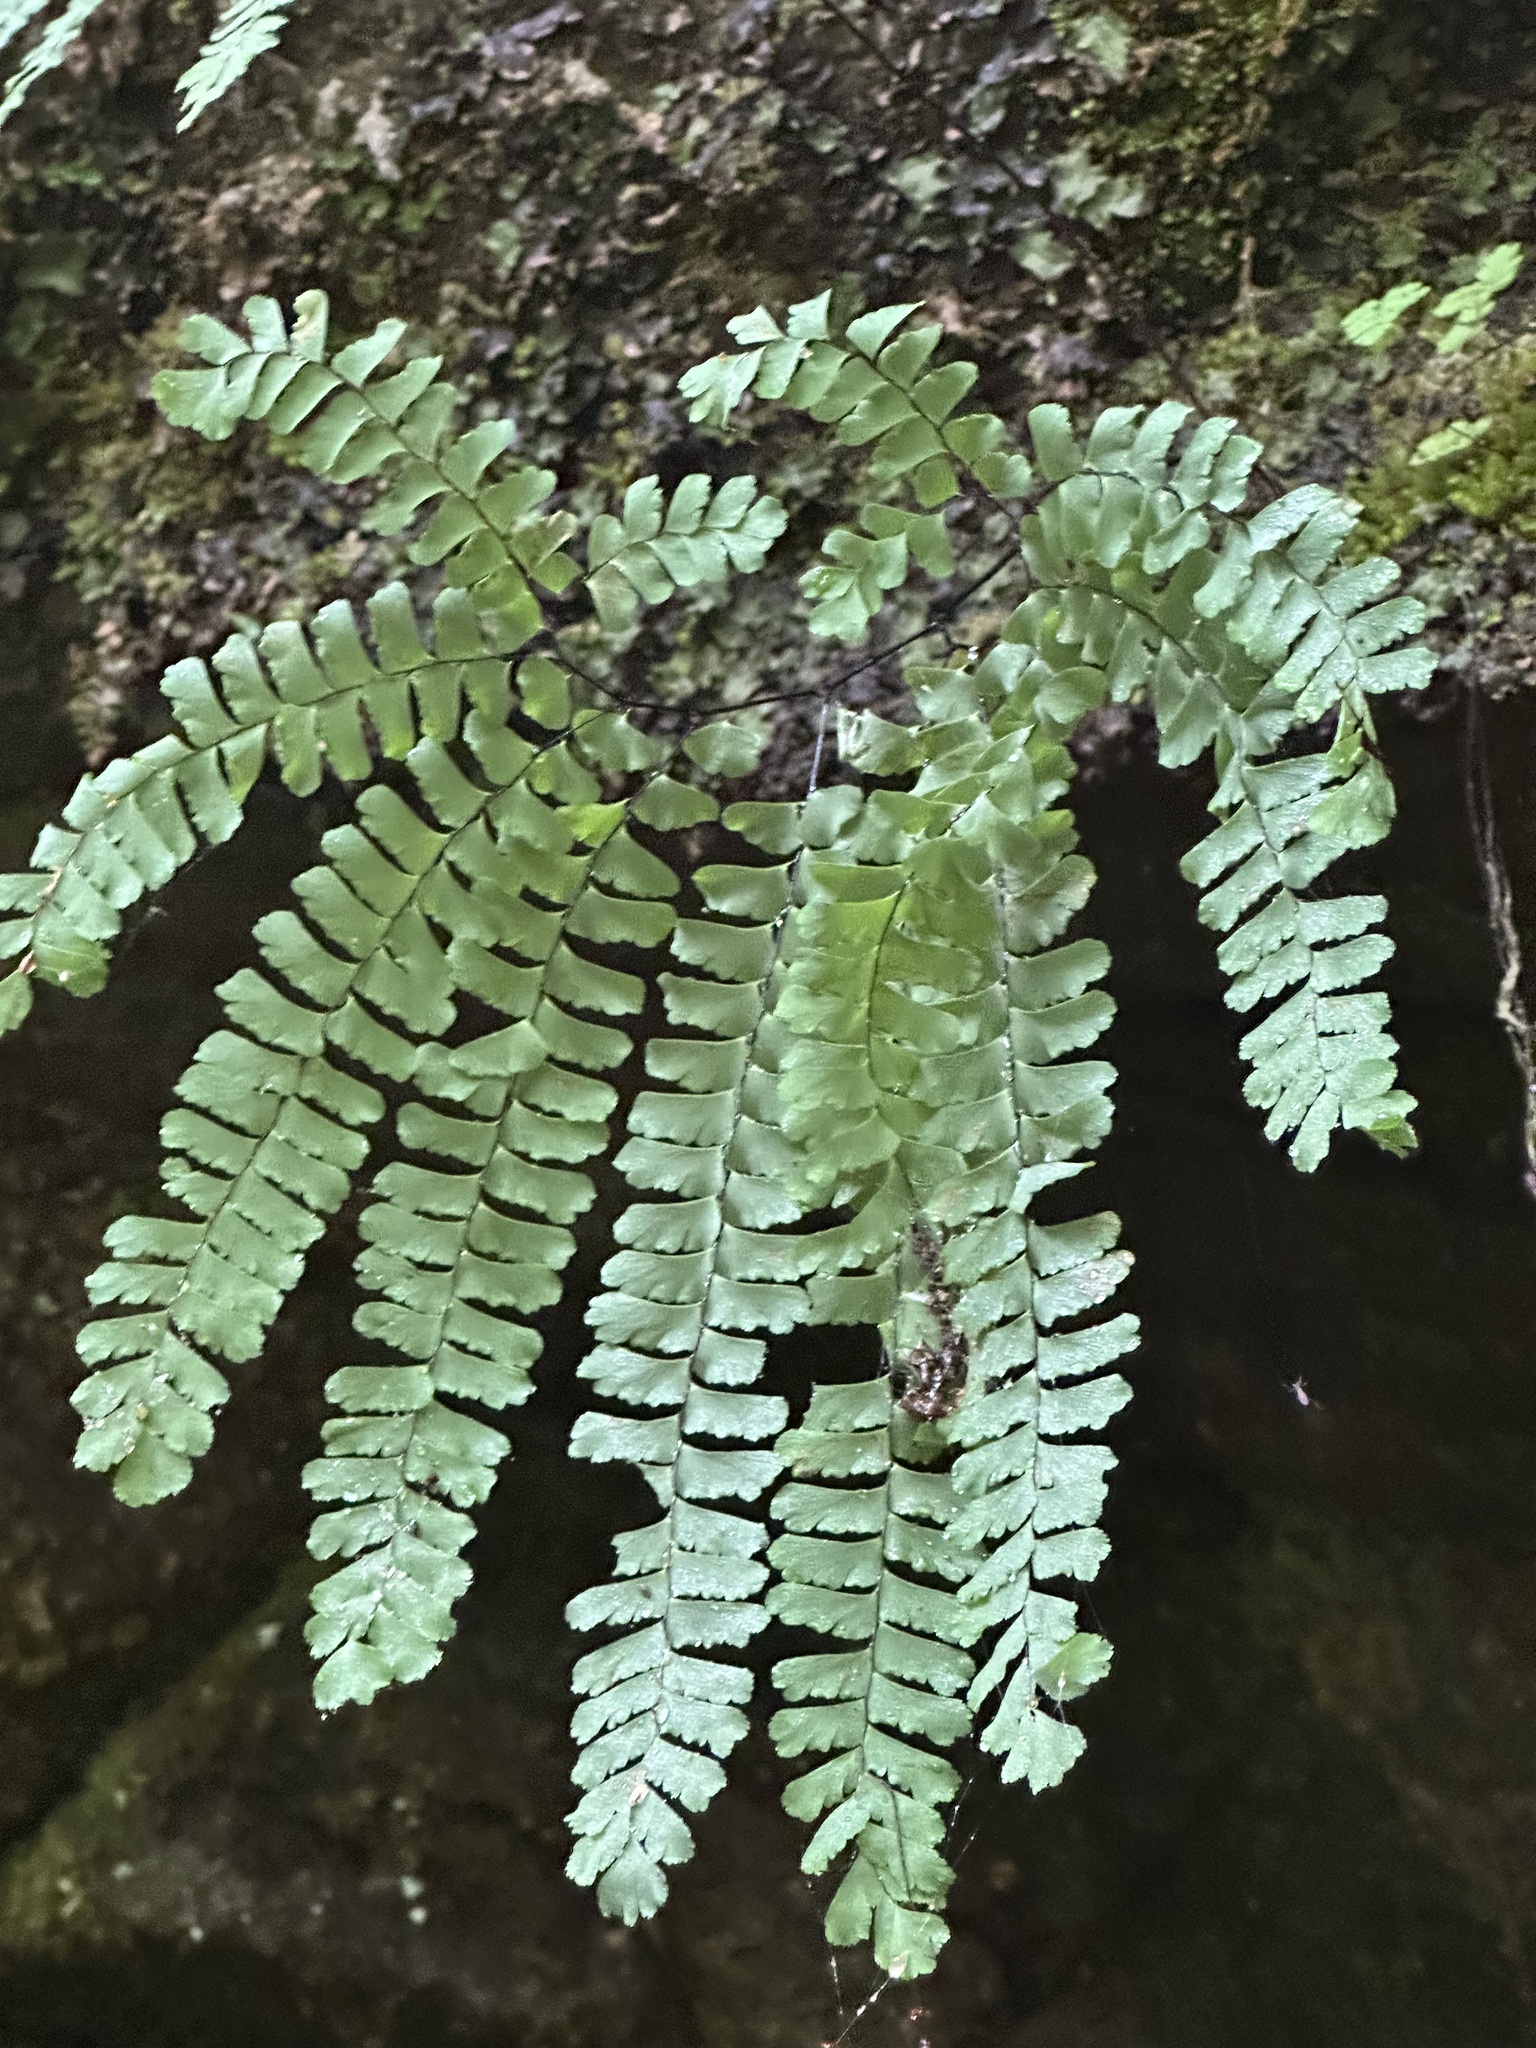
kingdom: Plantae
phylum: Tracheophyta
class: Polypodiopsida
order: Polypodiales
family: Pteridaceae
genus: Adiantum
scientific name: Adiantum pedatum
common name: Five-finger fern
